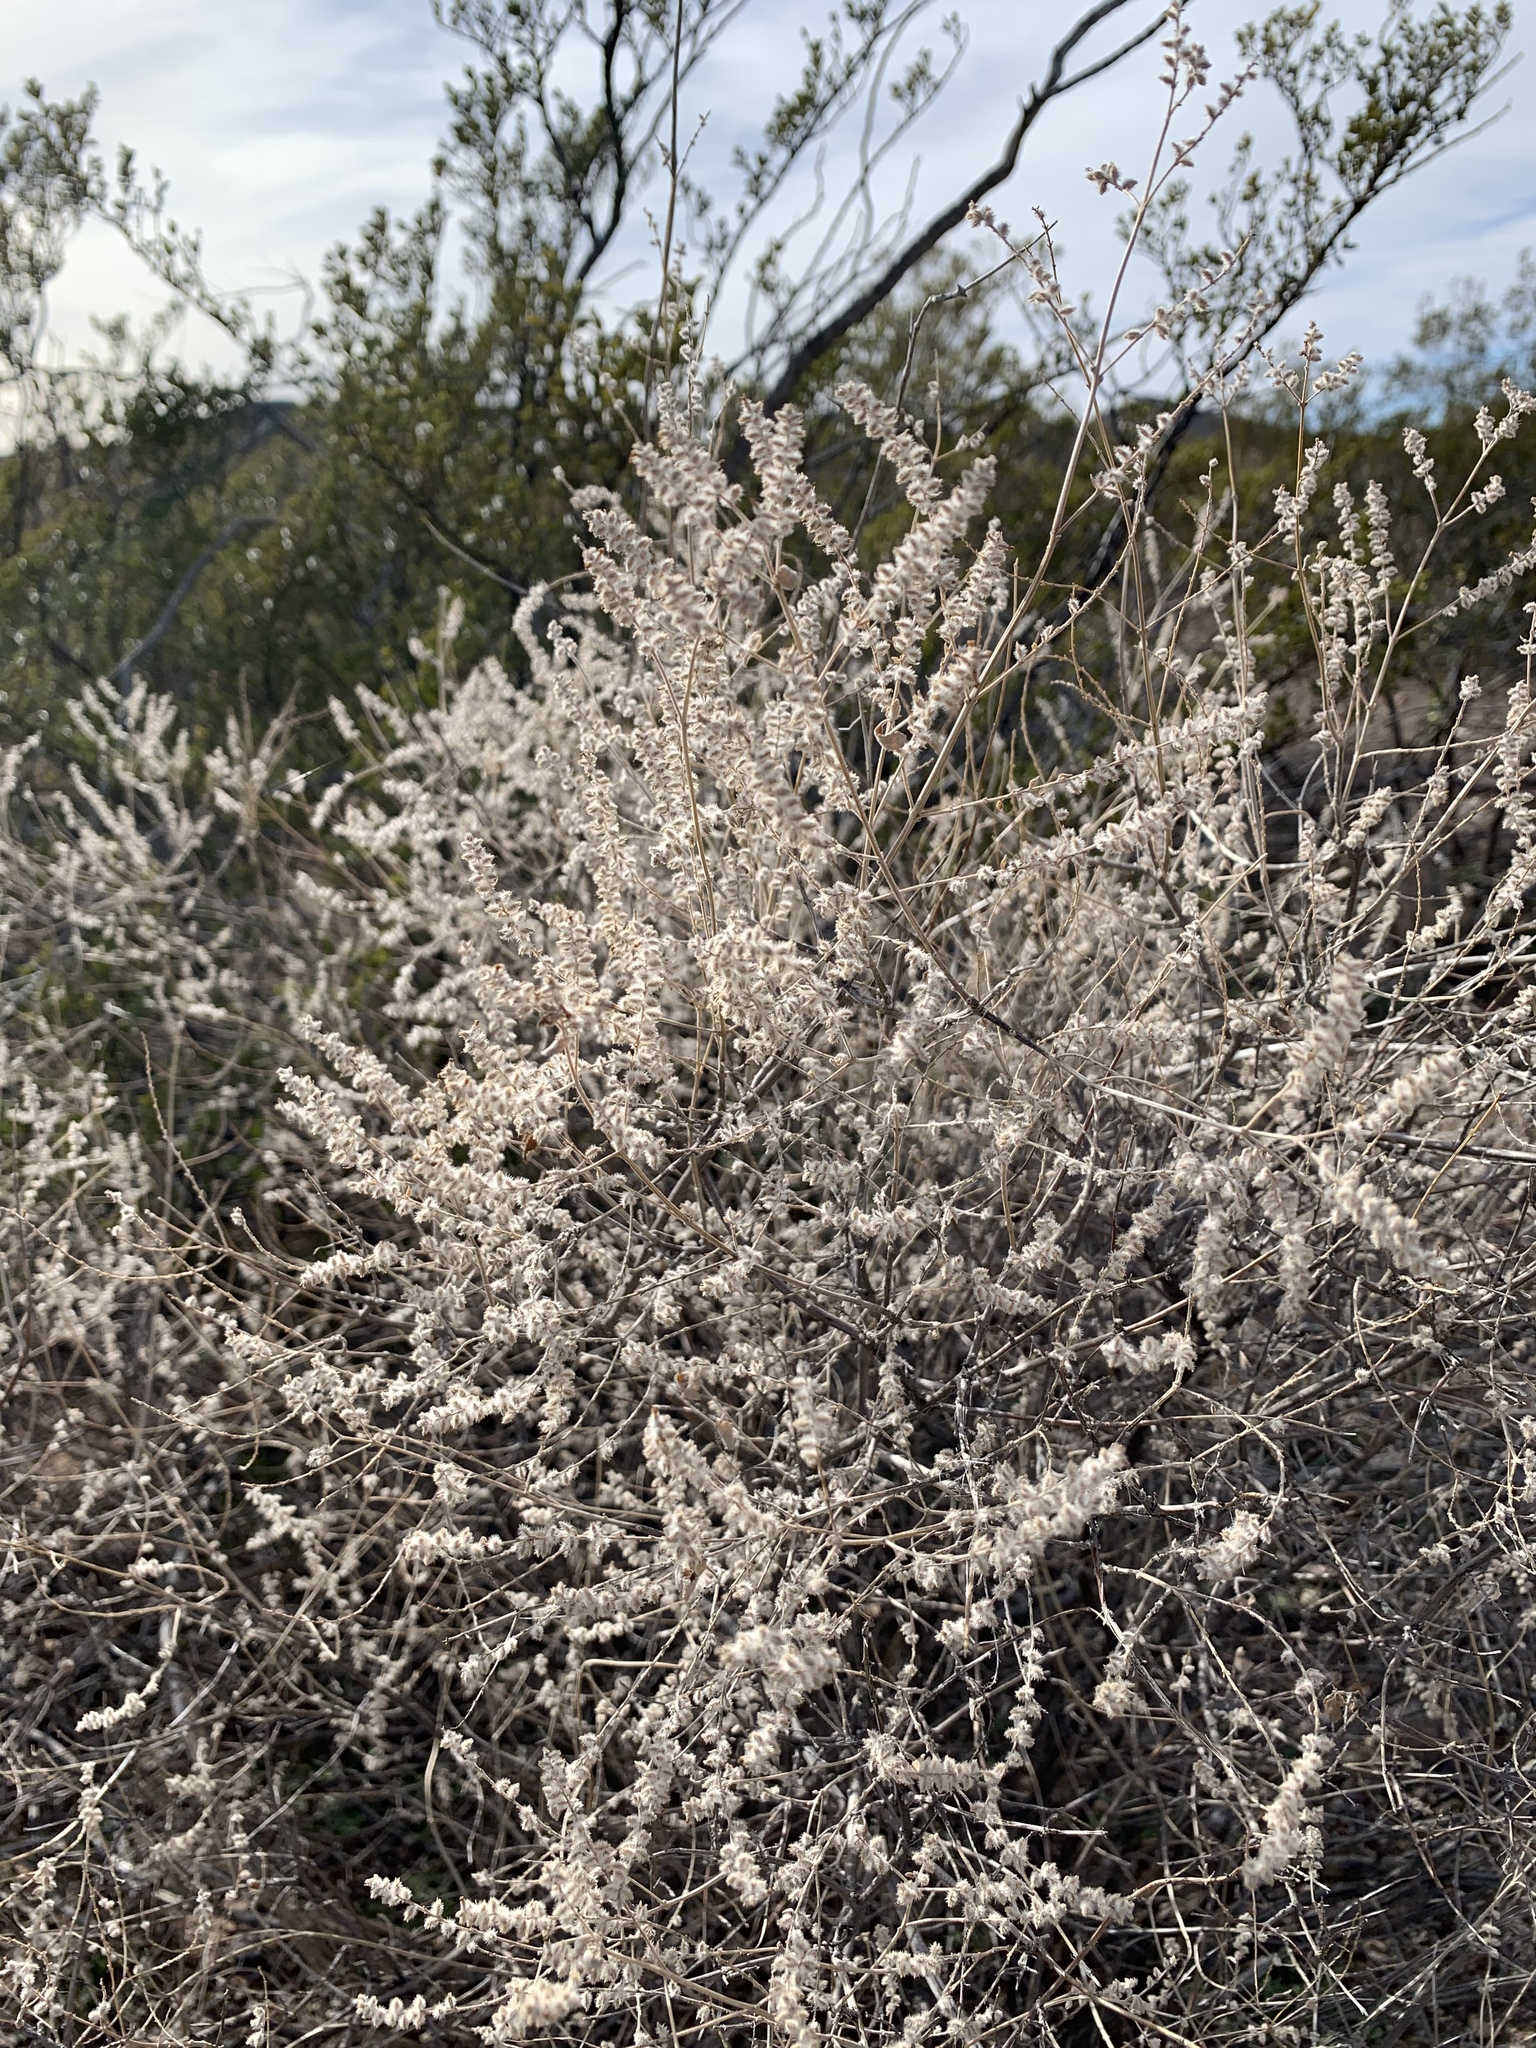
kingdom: Plantae
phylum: Tracheophyta
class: Magnoliopsida
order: Lamiales
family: Verbenaceae
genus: Aloysia
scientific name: Aloysia wrightii
